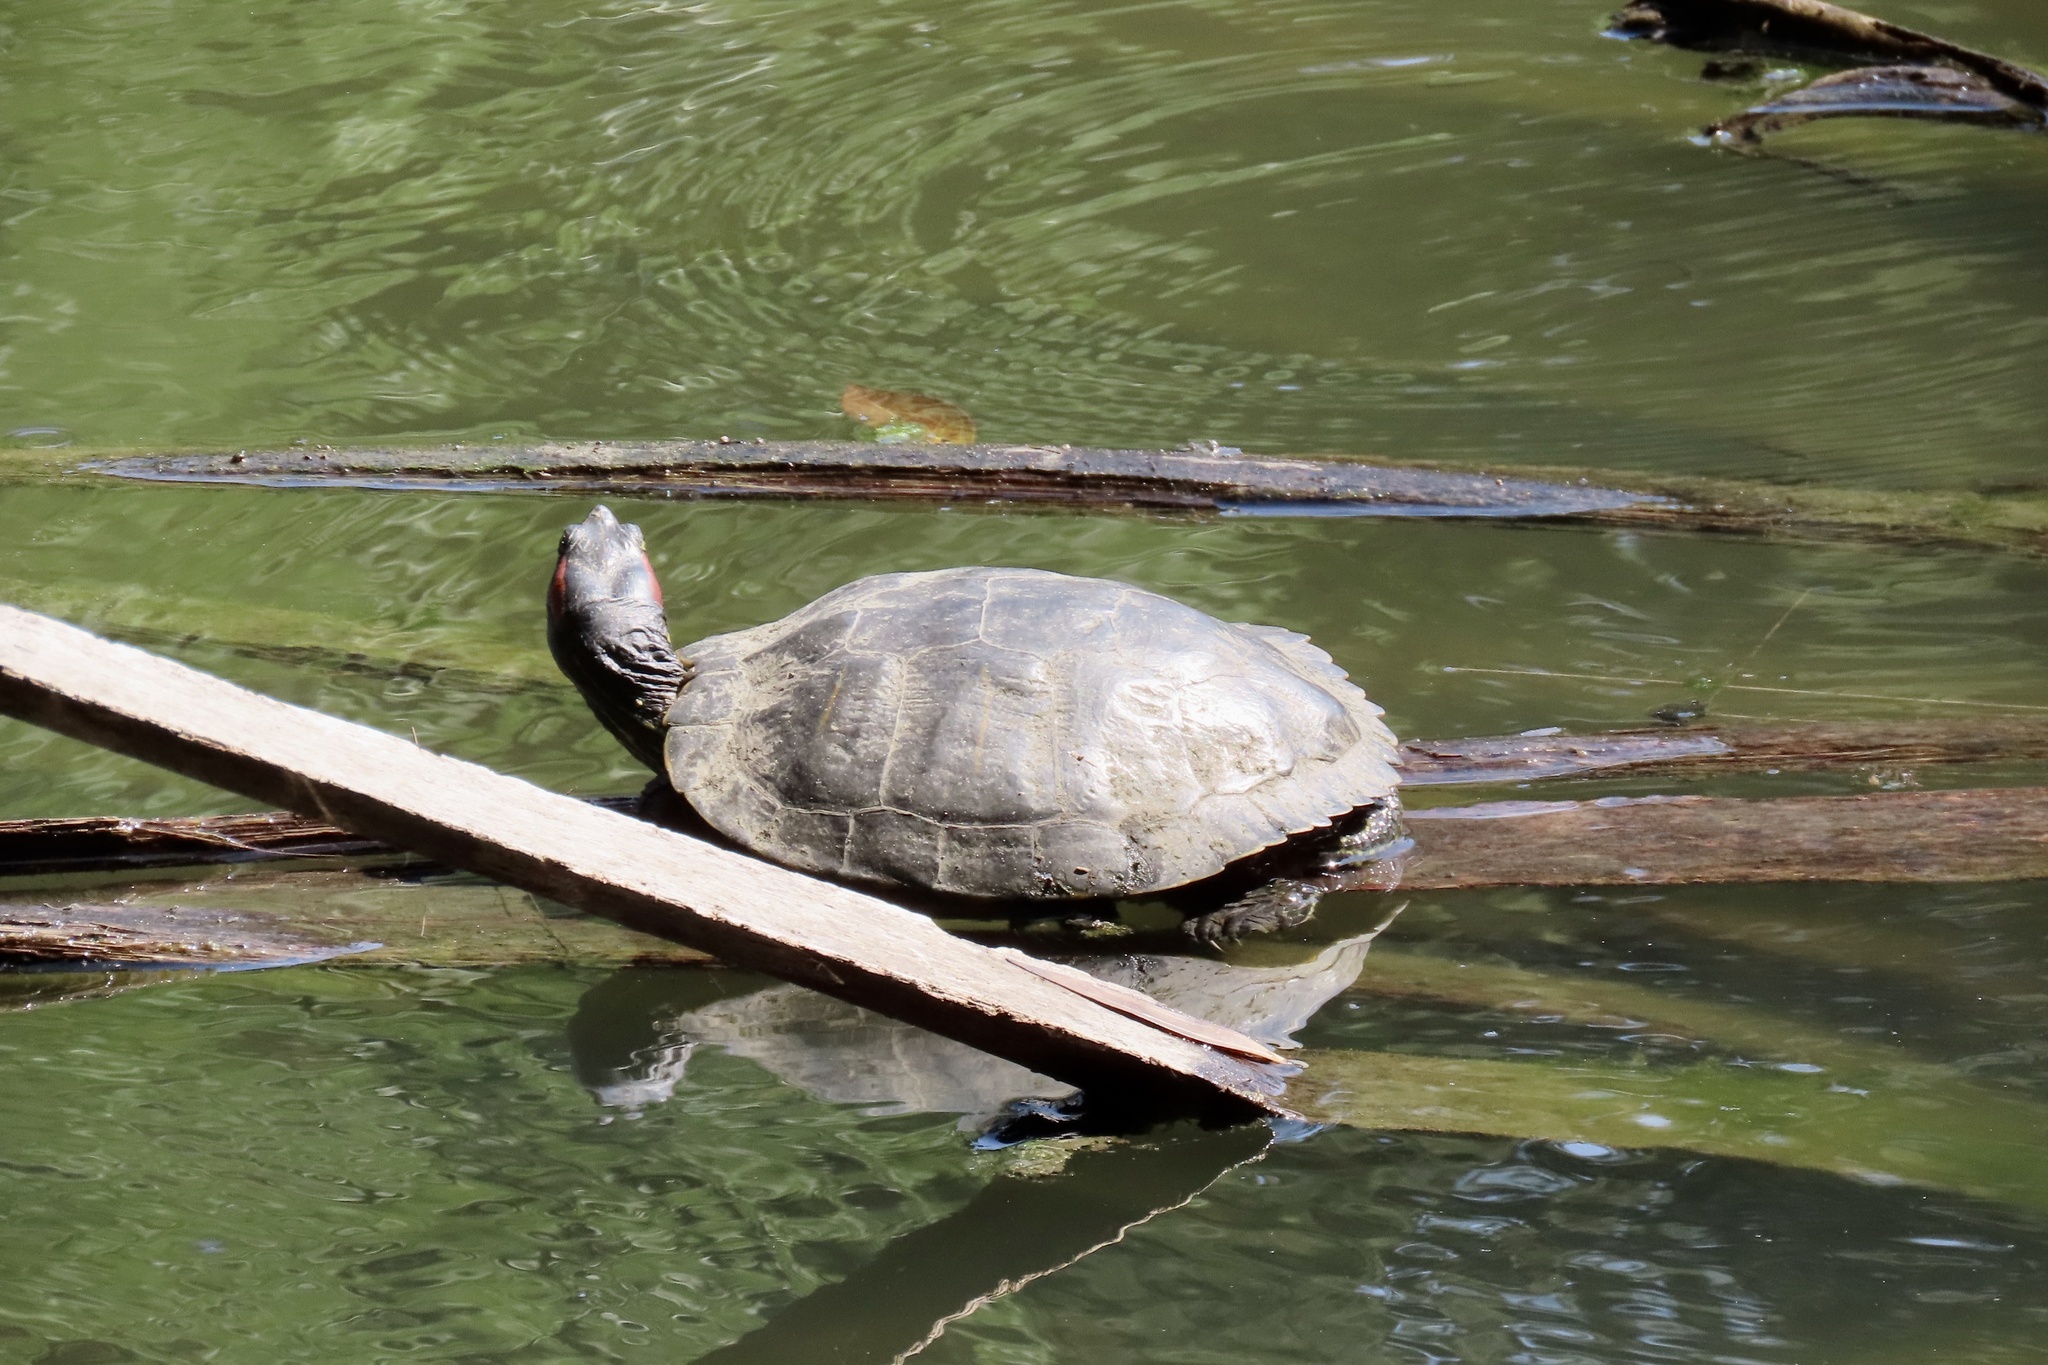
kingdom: Animalia
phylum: Chordata
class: Testudines
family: Emydidae
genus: Trachemys
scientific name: Trachemys scripta
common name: Slider
